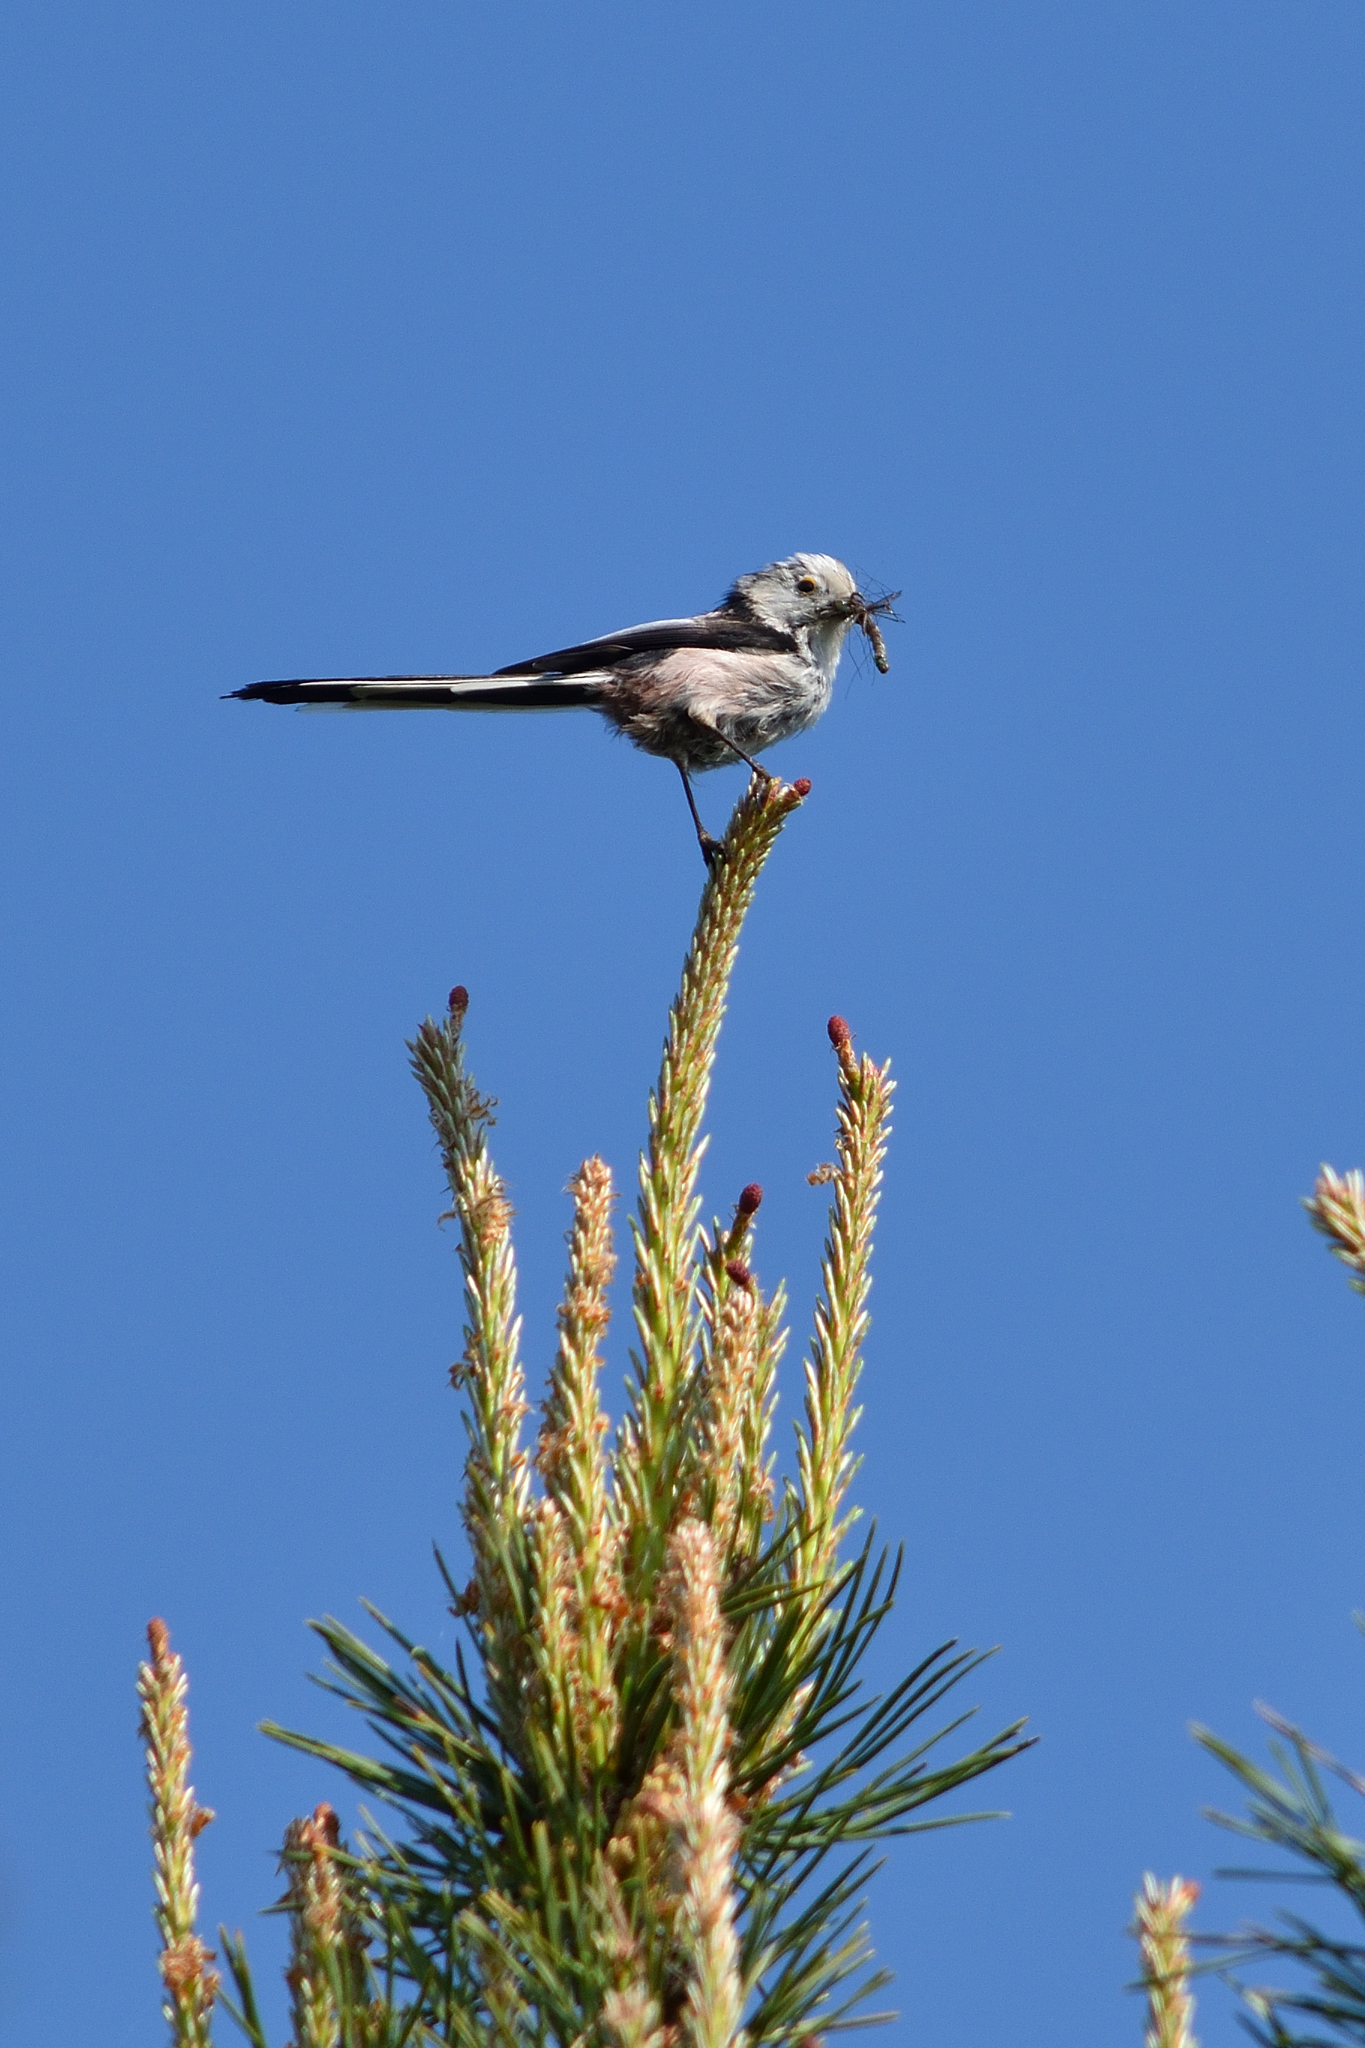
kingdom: Animalia
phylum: Chordata
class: Aves
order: Passeriformes
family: Aegithalidae
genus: Aegithalos
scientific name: Aegithalos caudatus
